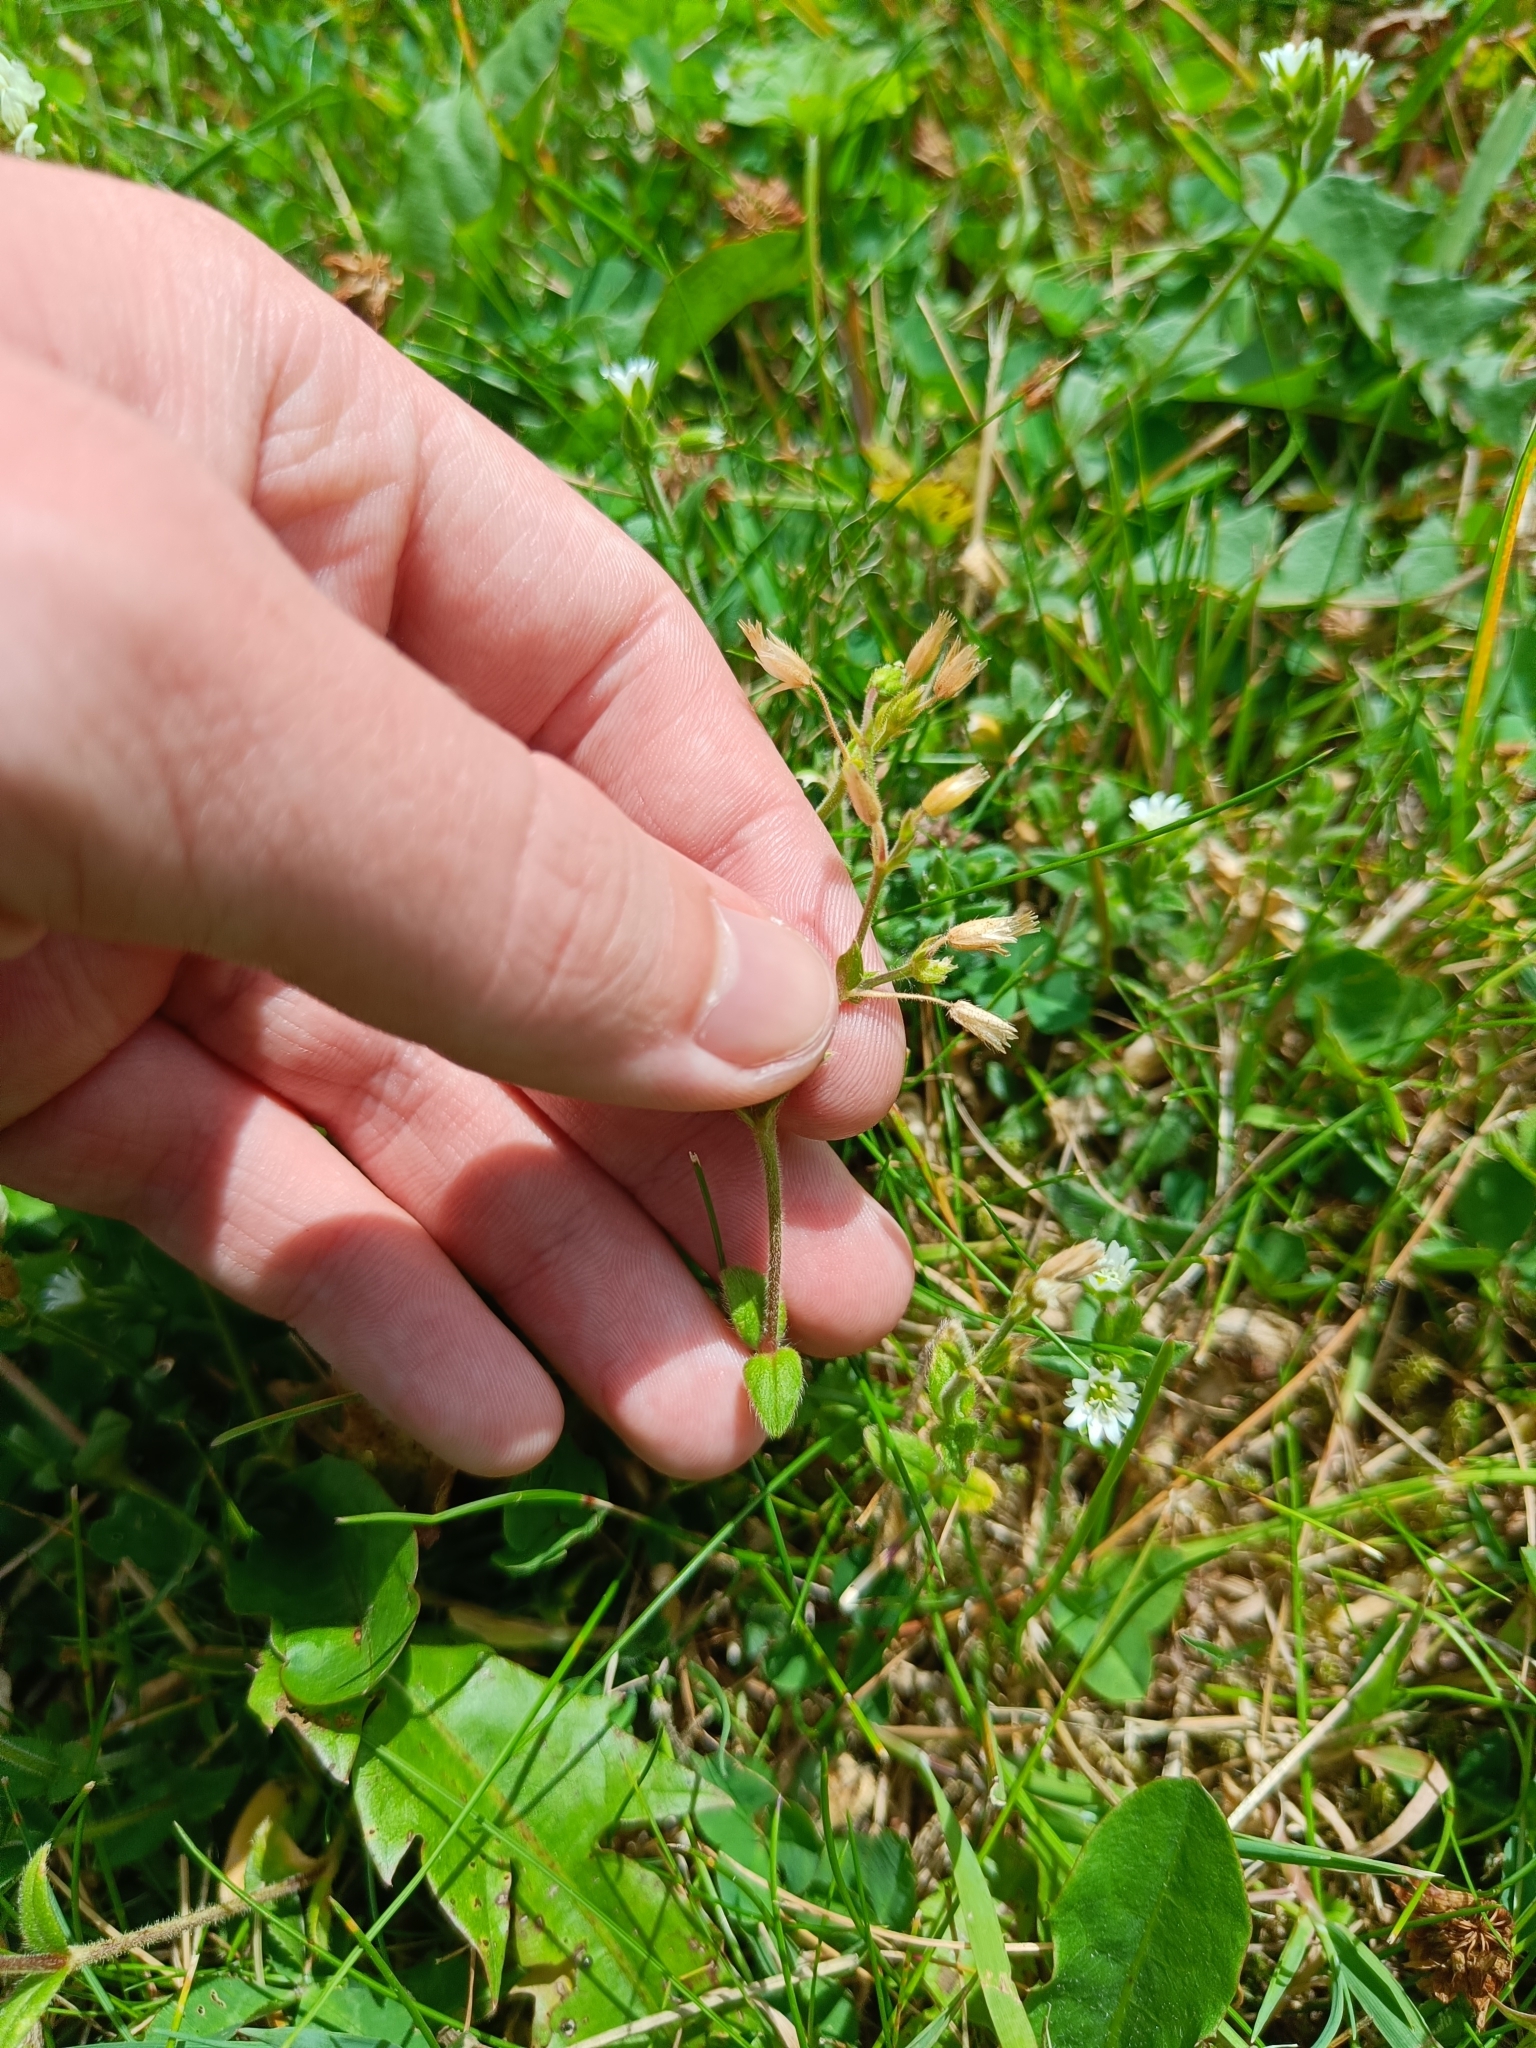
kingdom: Plantae
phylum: Tracheophyta
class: Magnoliopsida
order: Caryophyllales
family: Caryophyllaceae
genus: Cerastium
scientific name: Cerastium holosteoides
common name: Big chickweed
